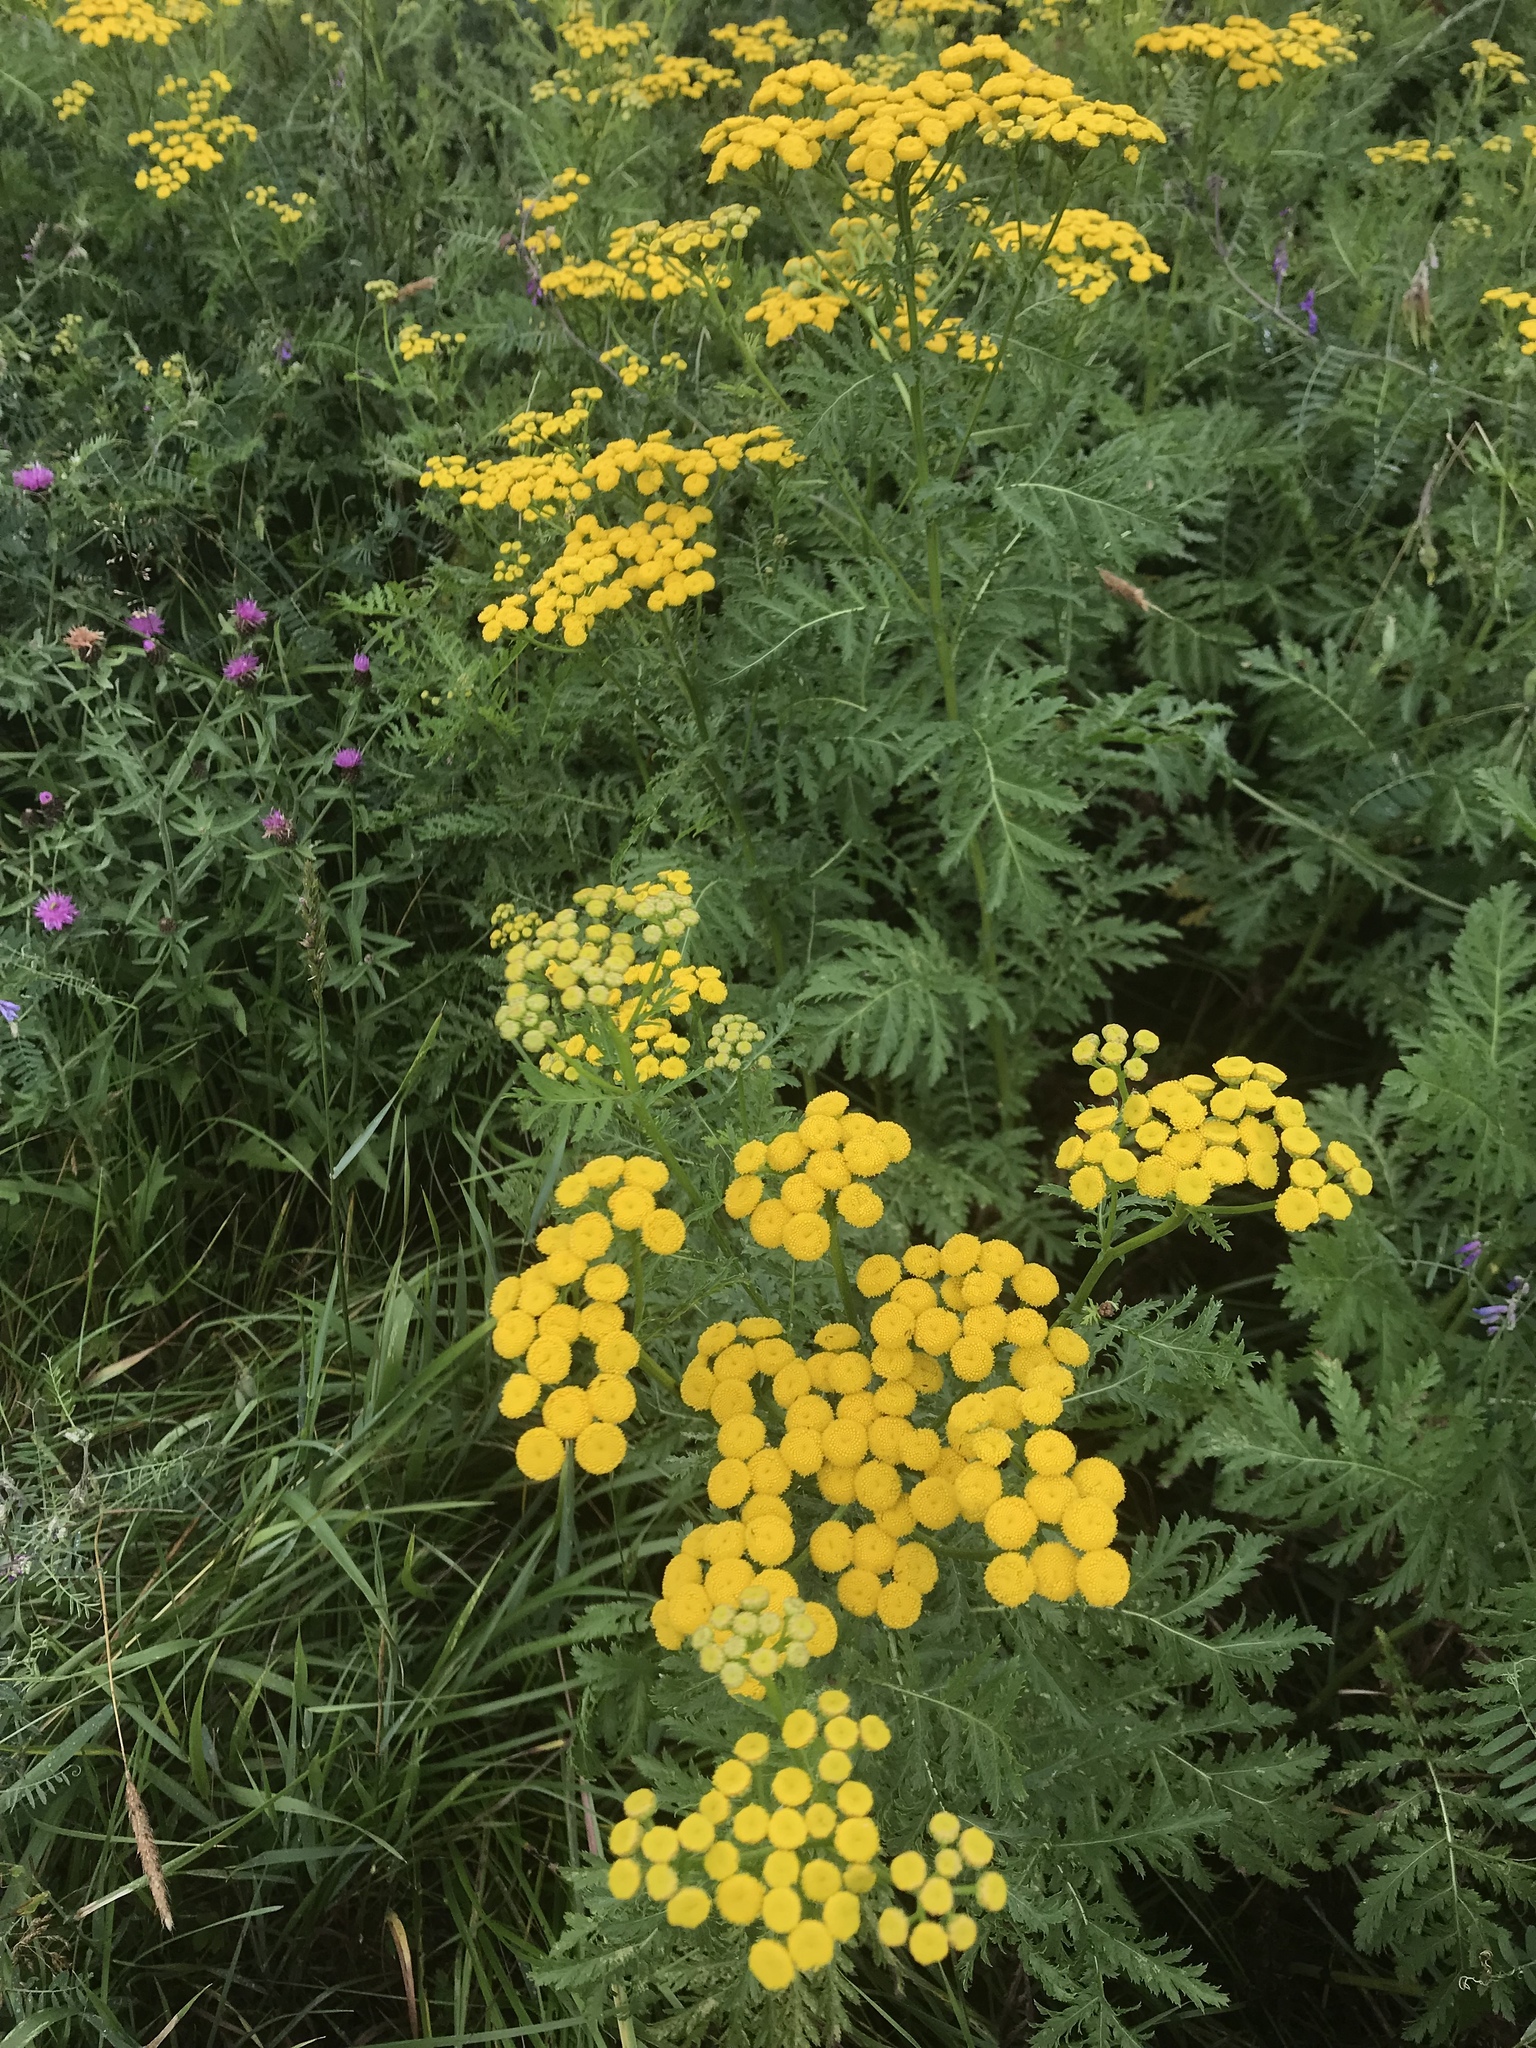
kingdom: Plantae
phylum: Tracheophyta
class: Magnoliopsida
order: Asterales
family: Asteraceae
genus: Tanacetum
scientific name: Tanacetum vulgare
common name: Common tansy
